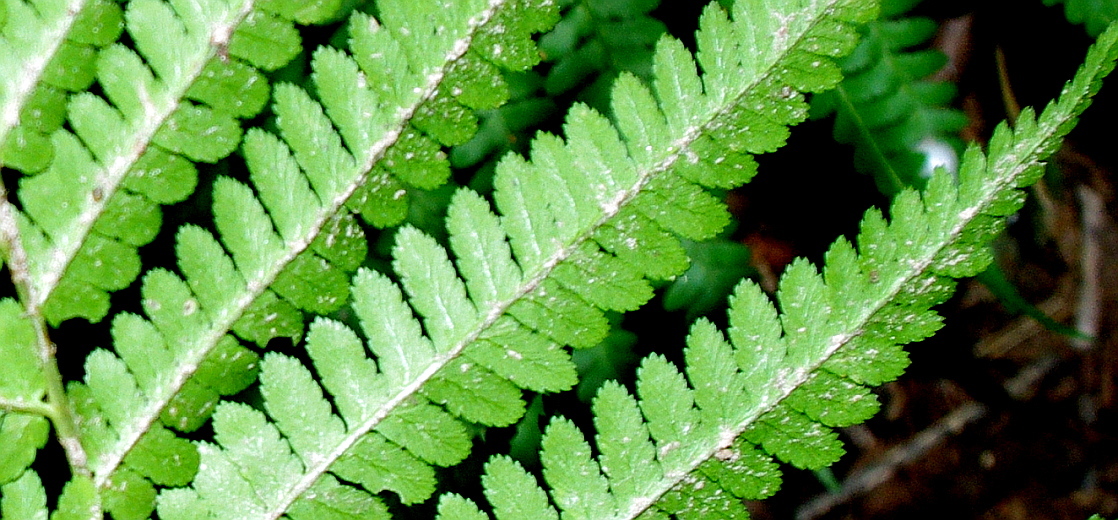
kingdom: Plantae
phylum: Tracheophyta
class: Polypodiopsida
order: Polypodiales
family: Dryopteridaceae
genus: Dryopteris
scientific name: Dryopteris filix-mas
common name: Male fern
